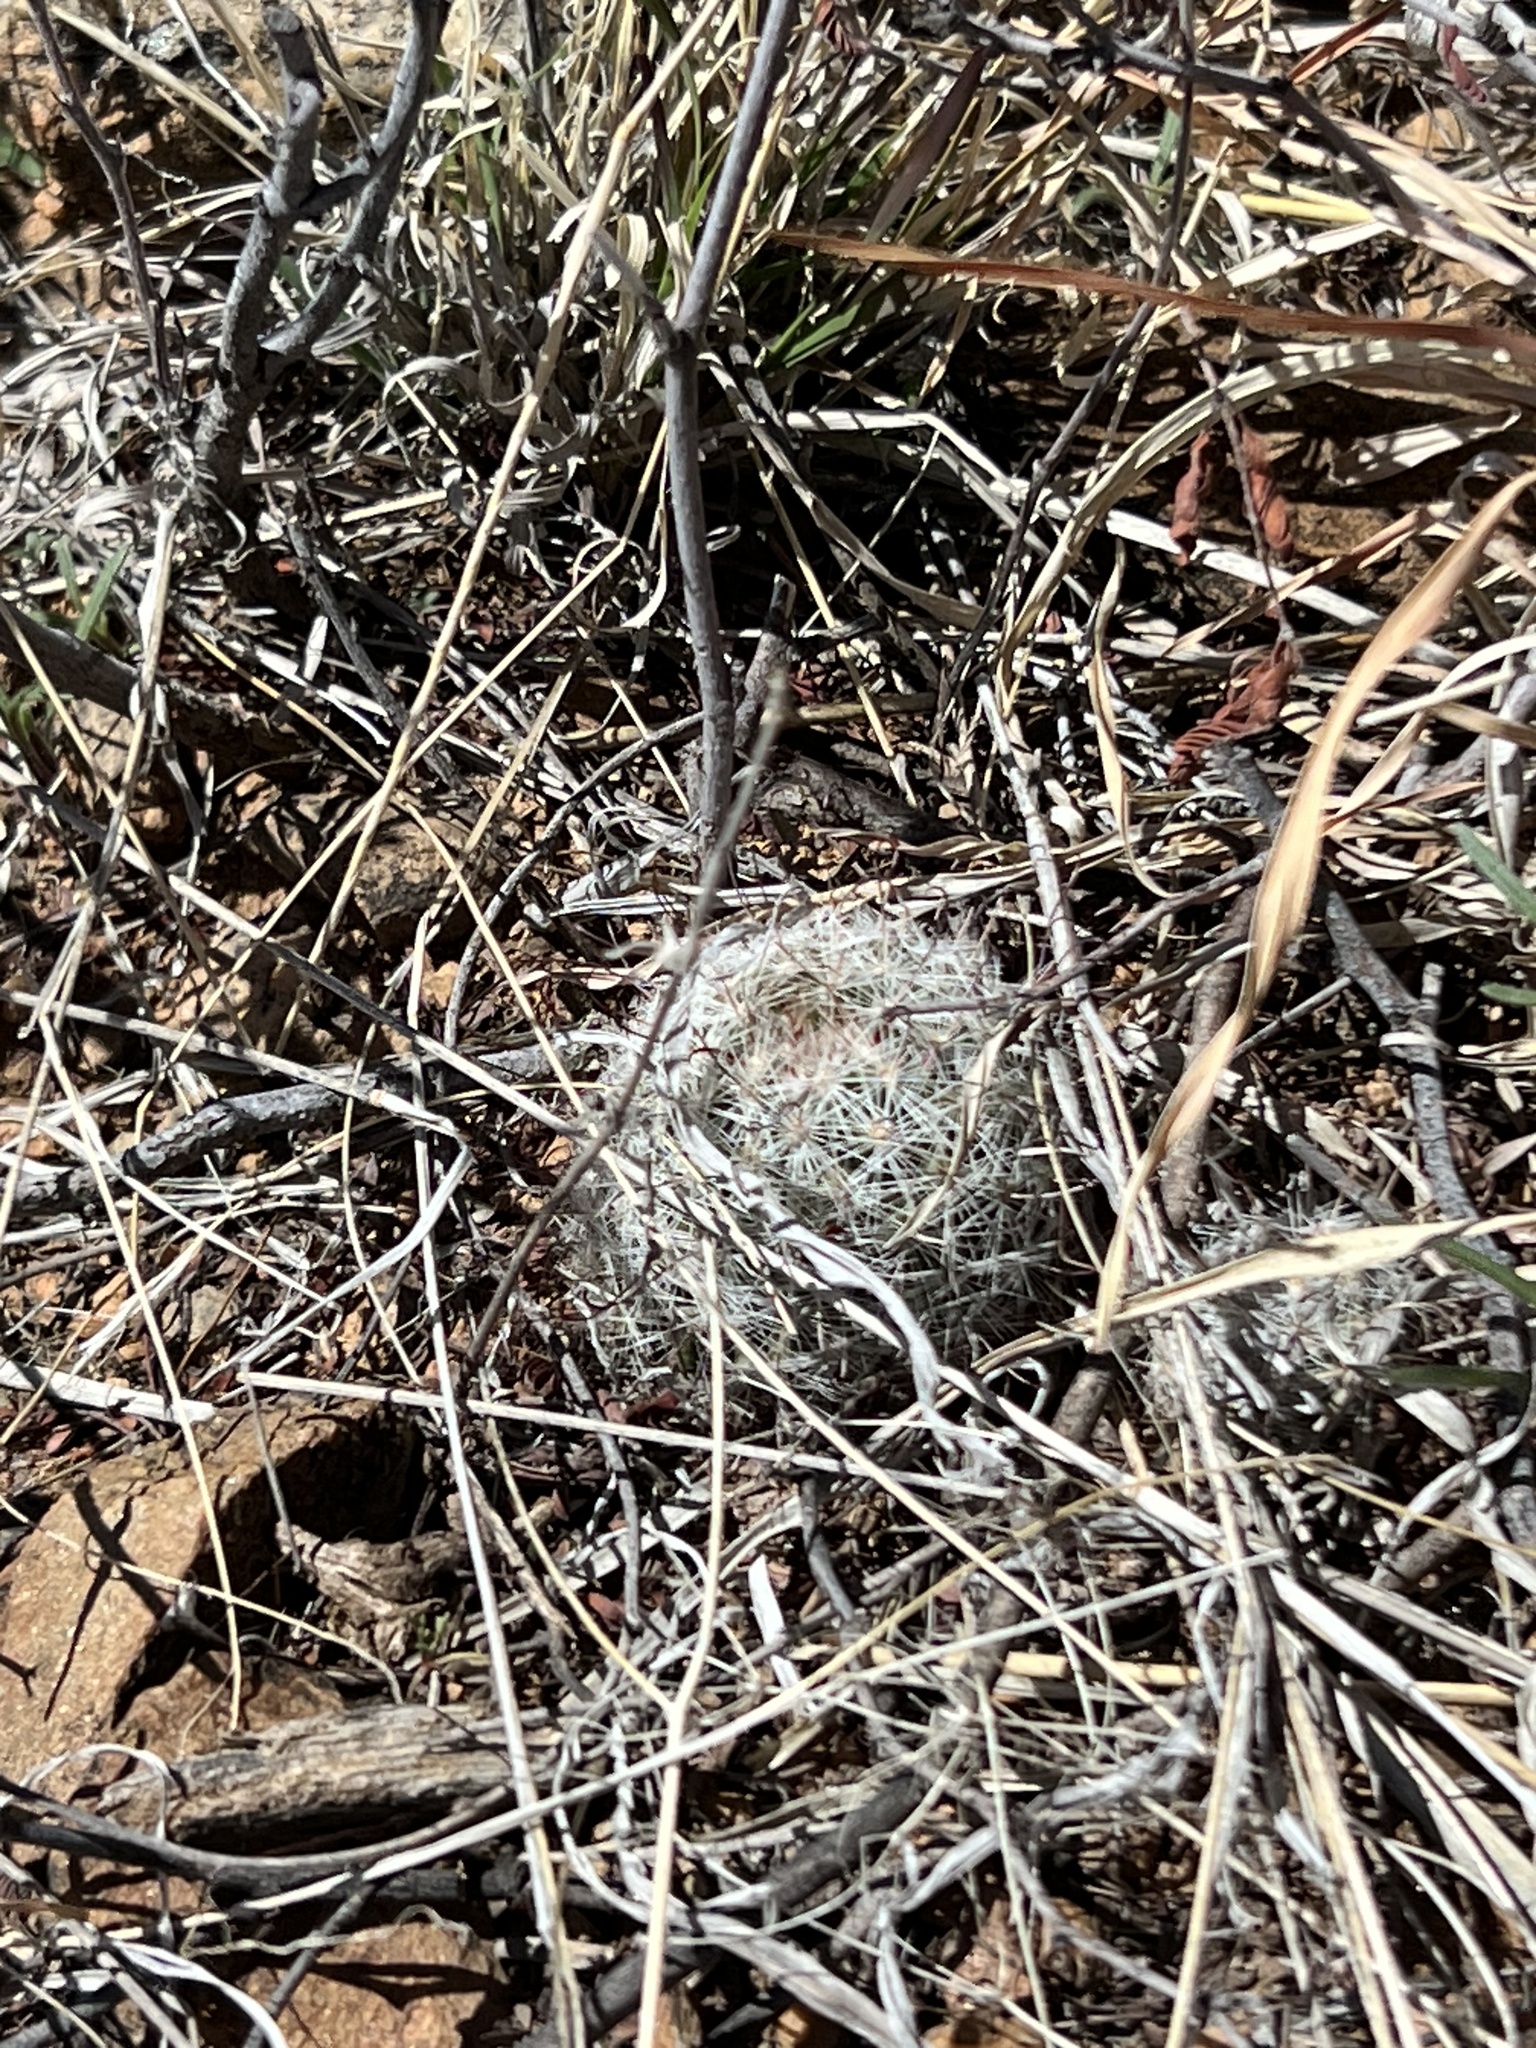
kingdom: Plantae
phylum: Tracheophyta
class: Magnoliopsida
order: Caryophyllales
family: Cactaceae
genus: Cochemiea
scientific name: Cochemiea grahamii
